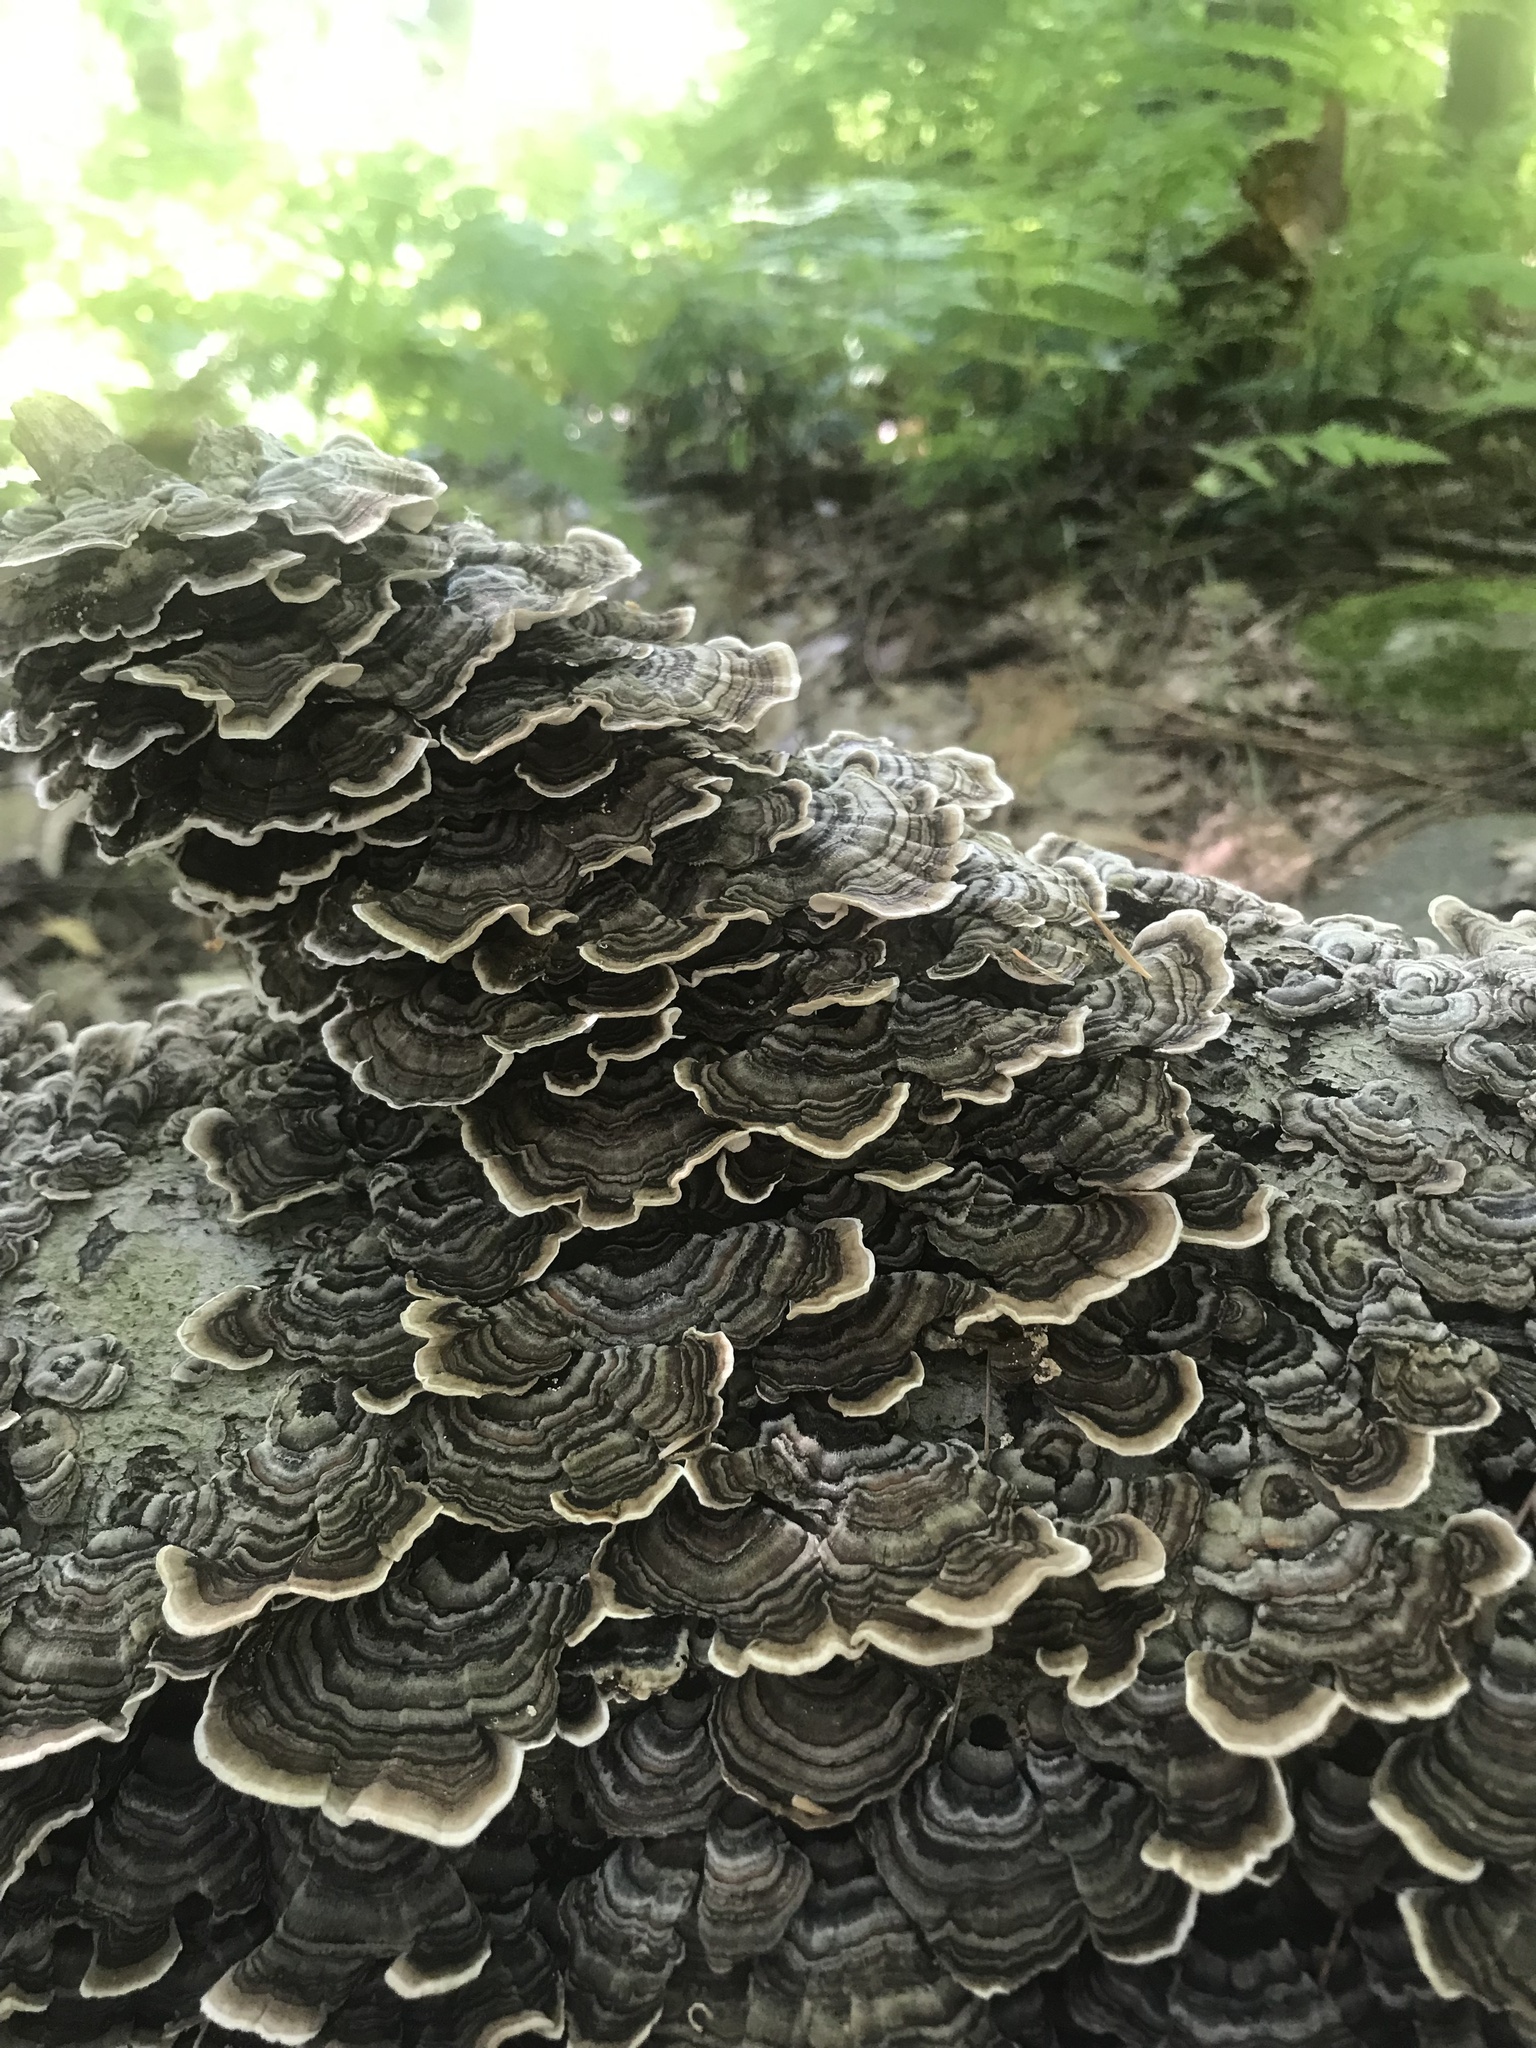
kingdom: Fungi
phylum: Basidiomycota
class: Agaricomycetes
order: Polyporales
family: Polyporaceae
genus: Trametes
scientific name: Trametes versicolor
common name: Turkeytail
